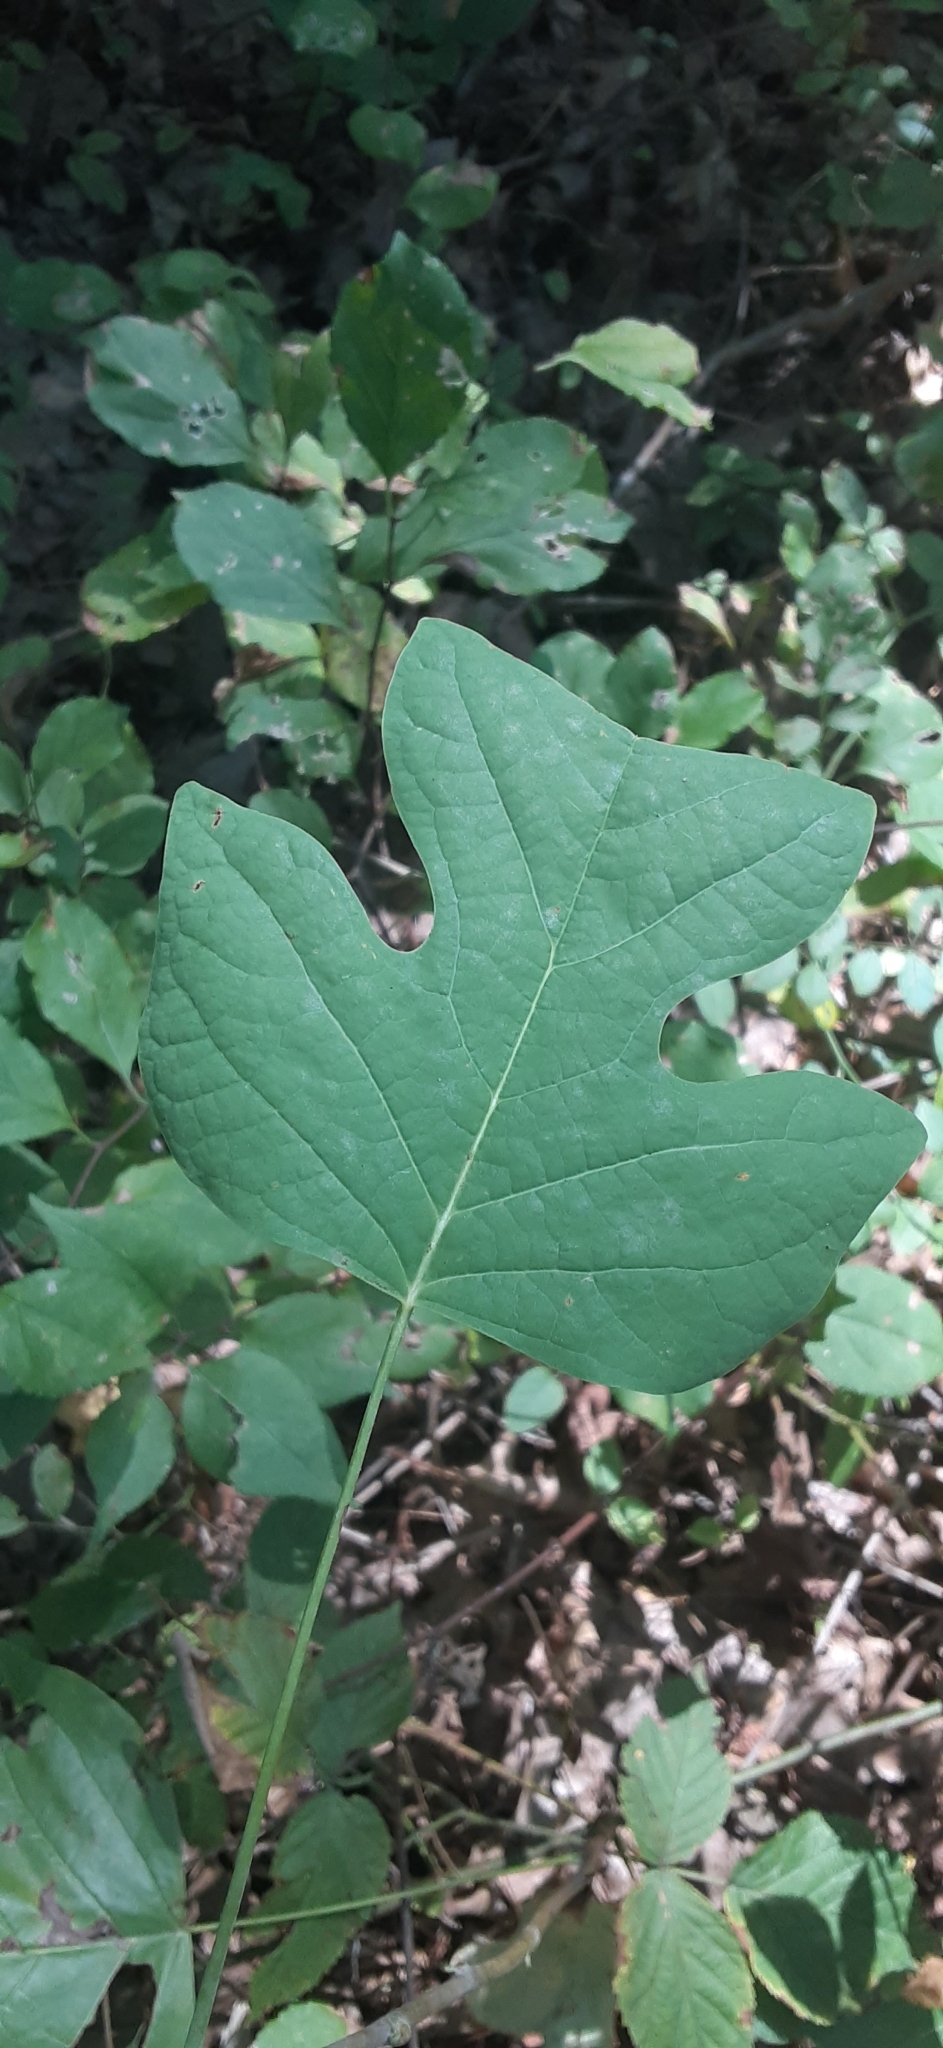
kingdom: Plantae
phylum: Tracheophyta
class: Magnoliopsida
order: Magnoliales
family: Magnoliaceae
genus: Liriodendron
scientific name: Liriodendron tulipifera
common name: Tulip tree
